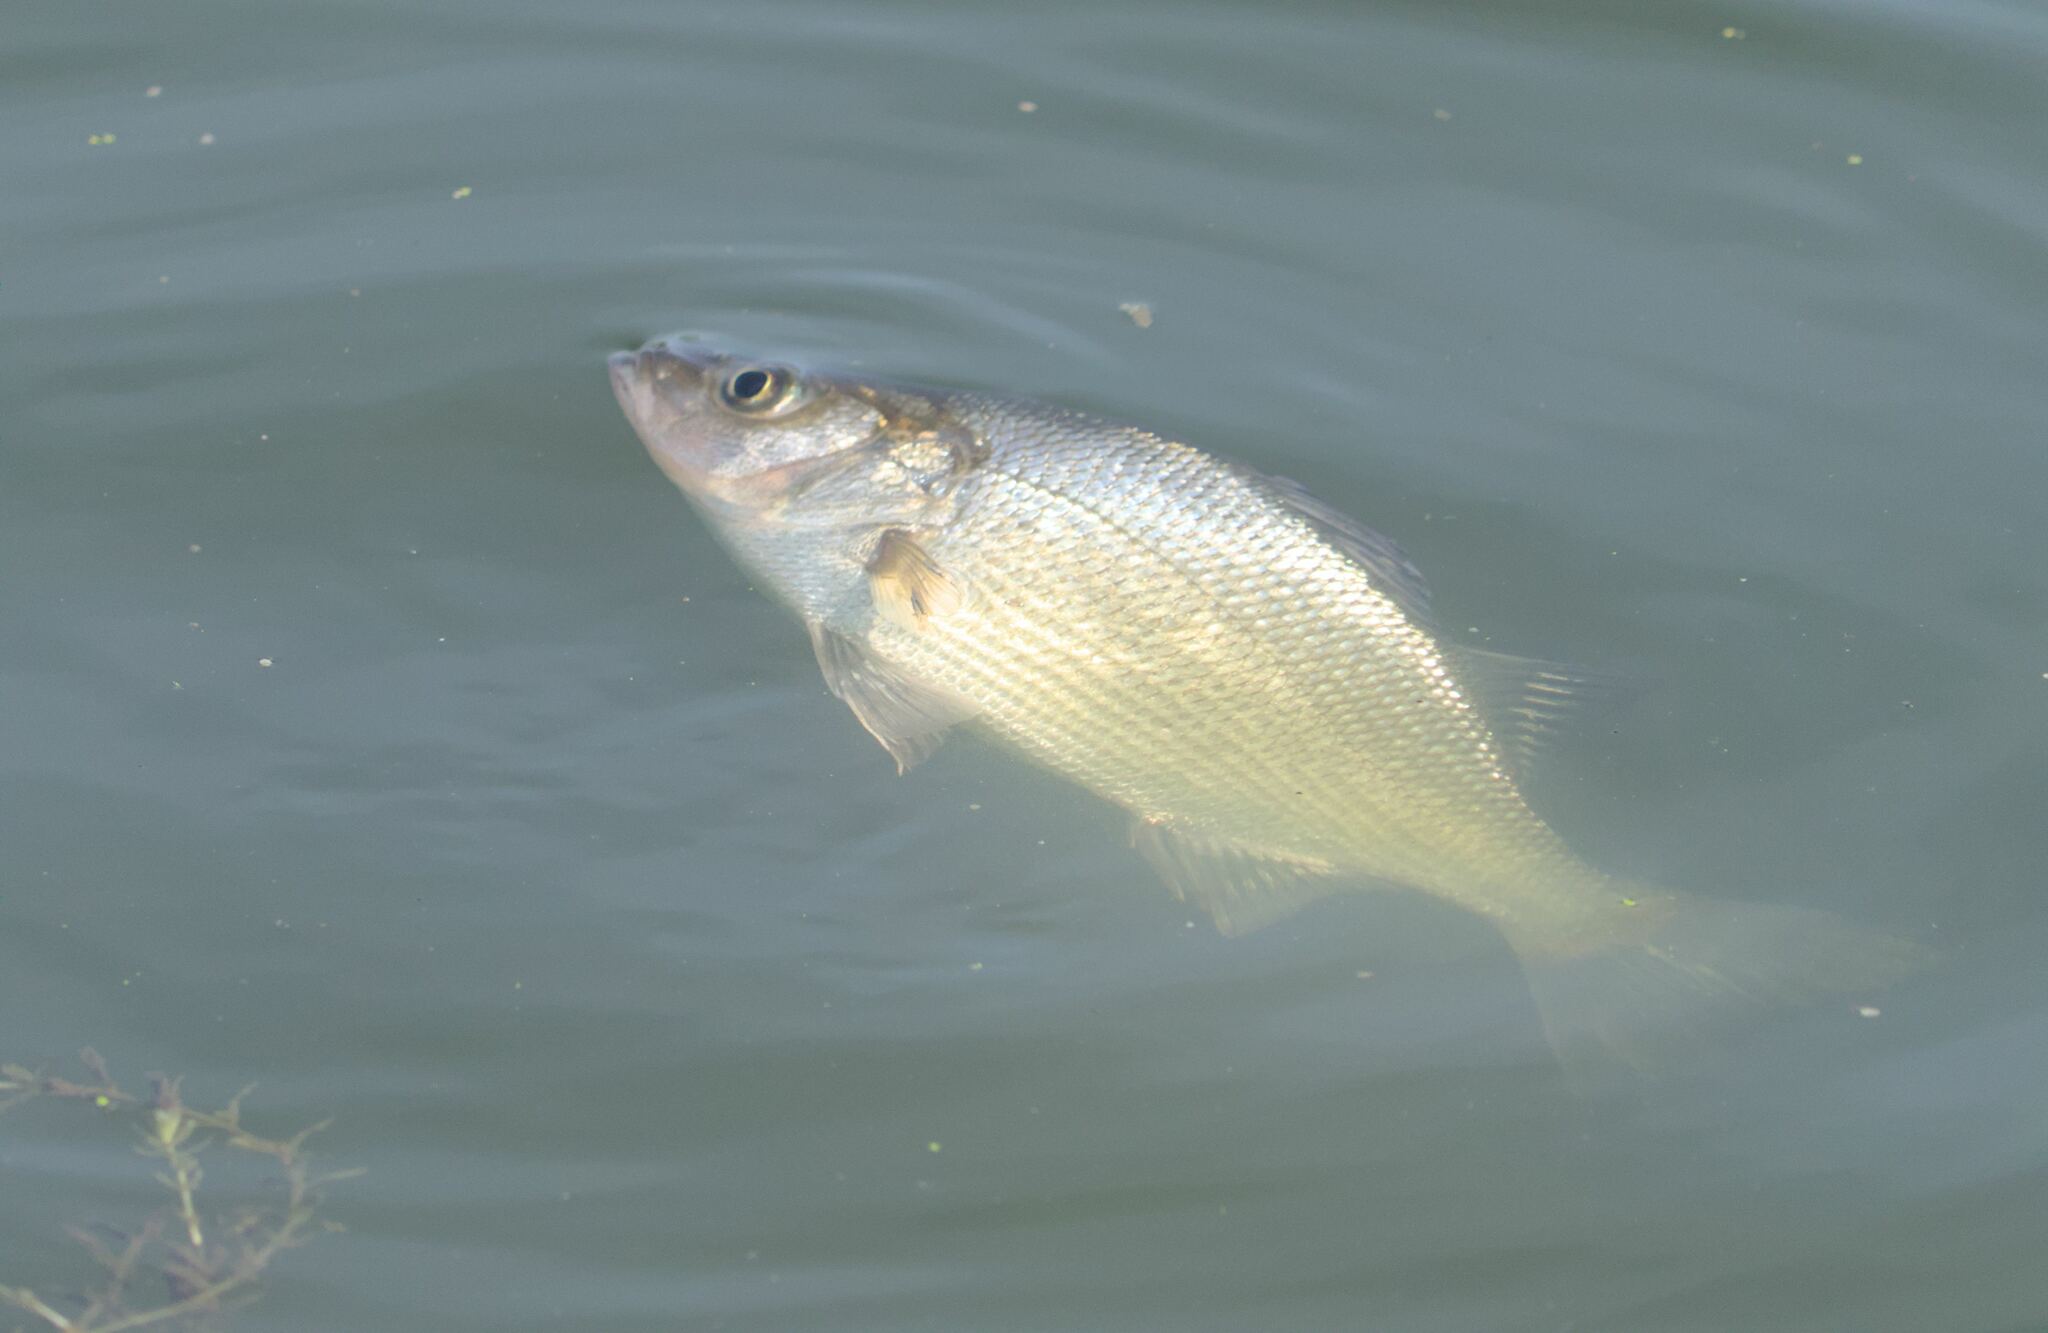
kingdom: Animalia
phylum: Chordata
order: Perciformes
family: Moronidae
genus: Morone
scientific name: Morone americana
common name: White perch
